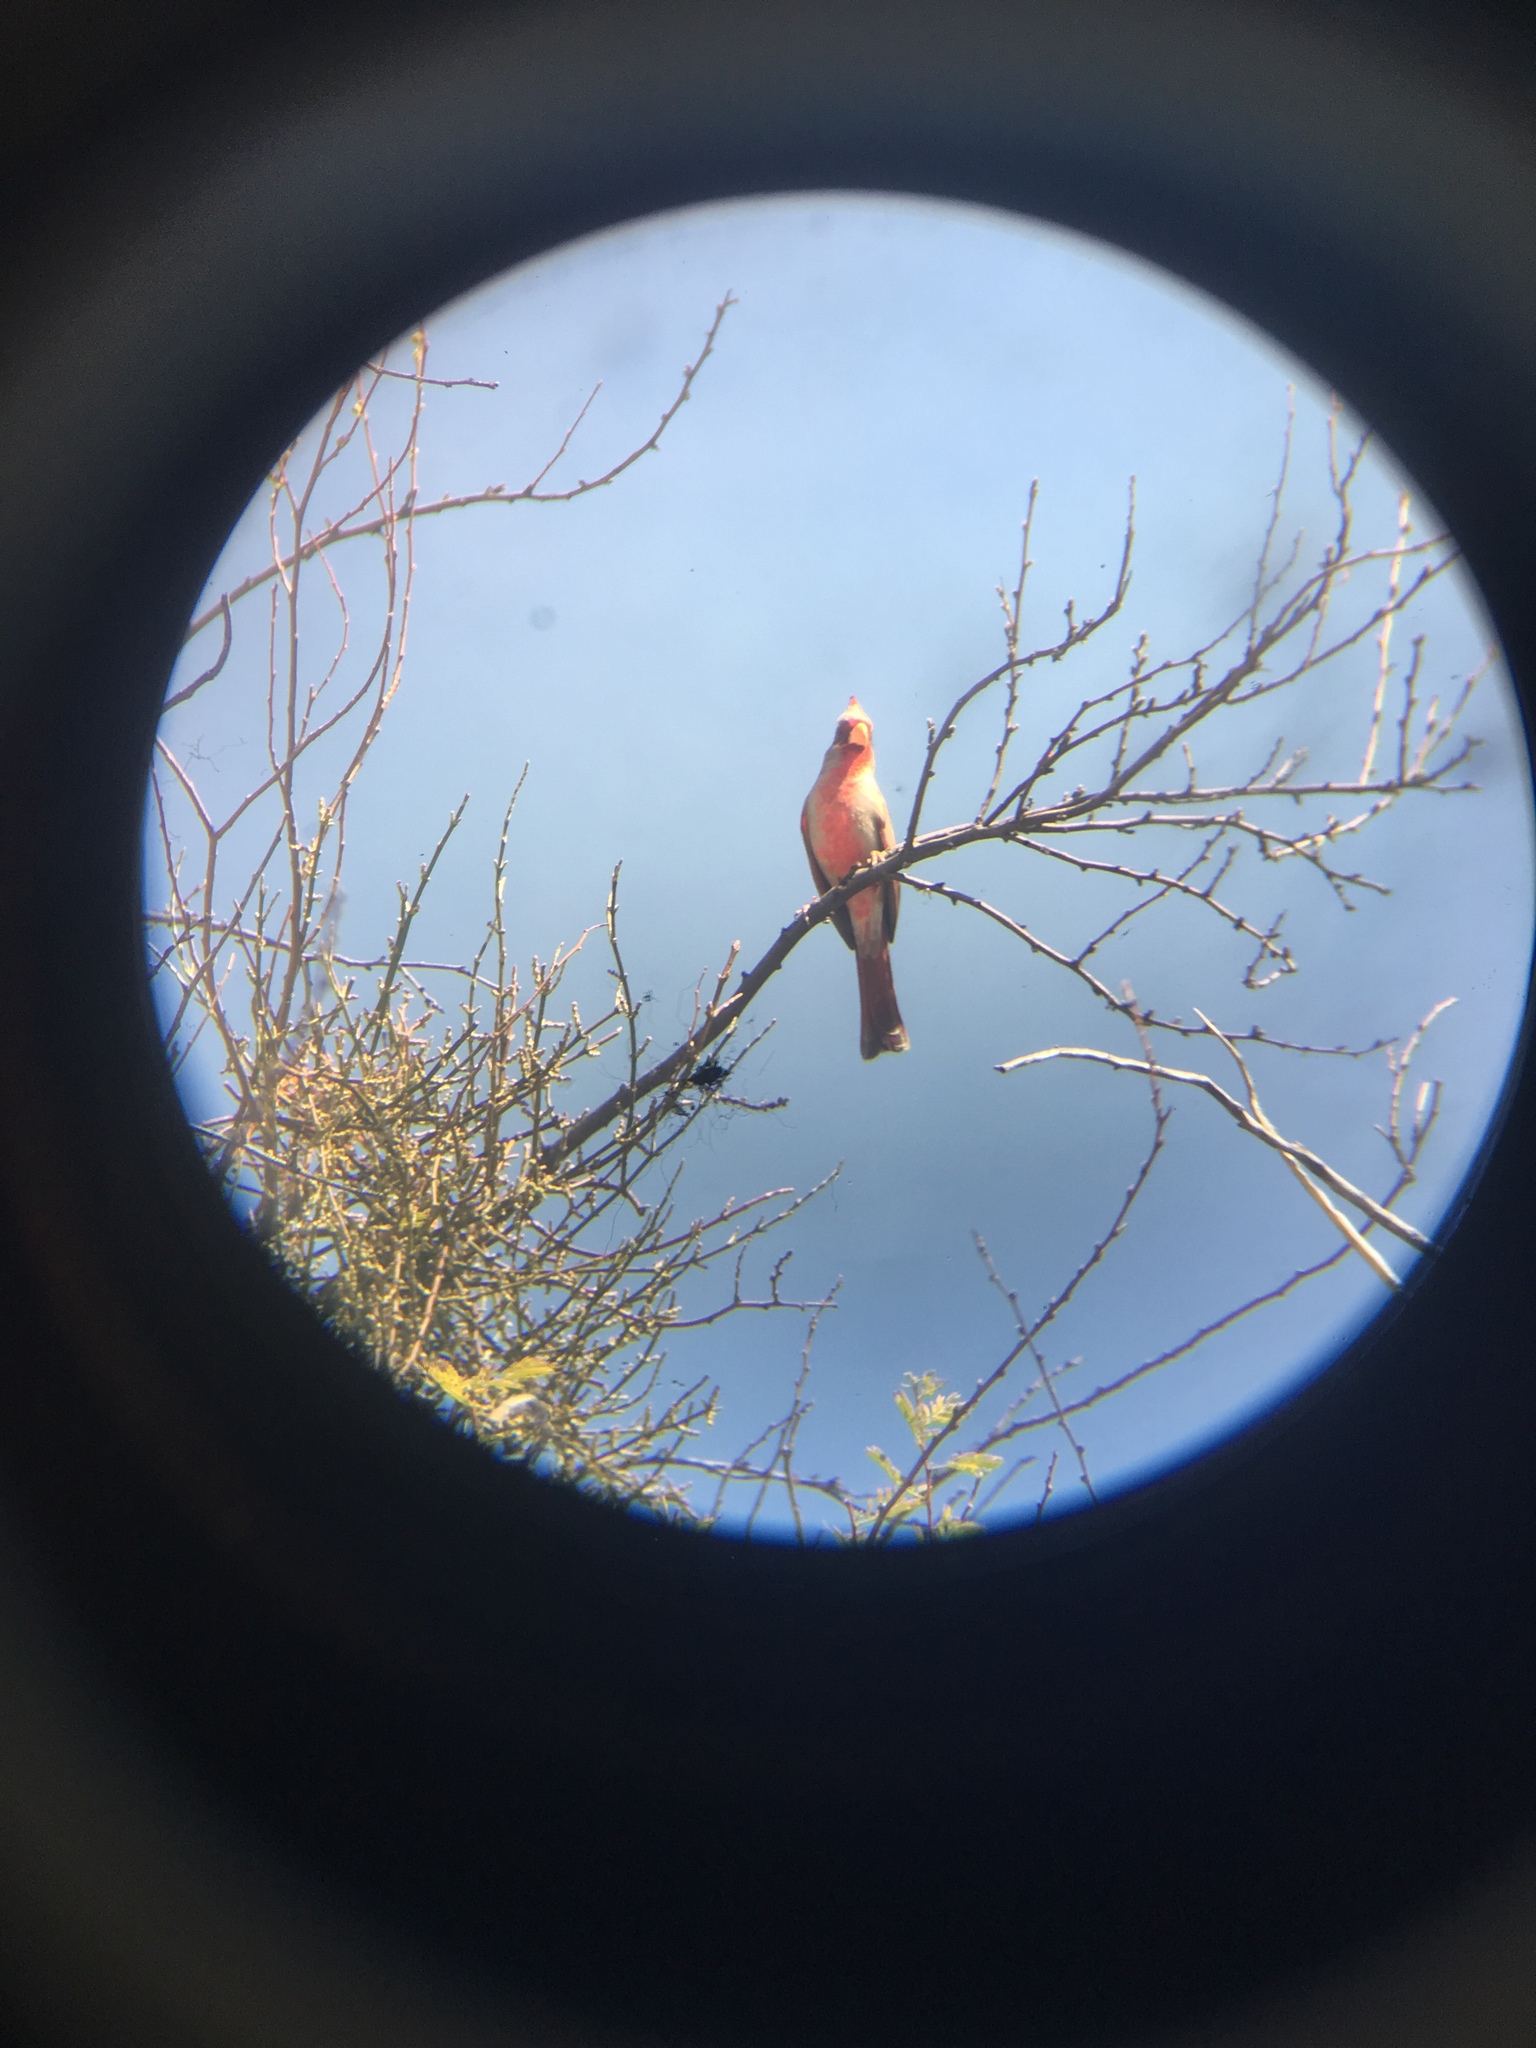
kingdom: Animalia
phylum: Chordata
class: Aves
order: Passeriformes
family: Cardinalidae
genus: Cardinalis
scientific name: Cardinalis sinuatus
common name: Pyrrhuloxia
